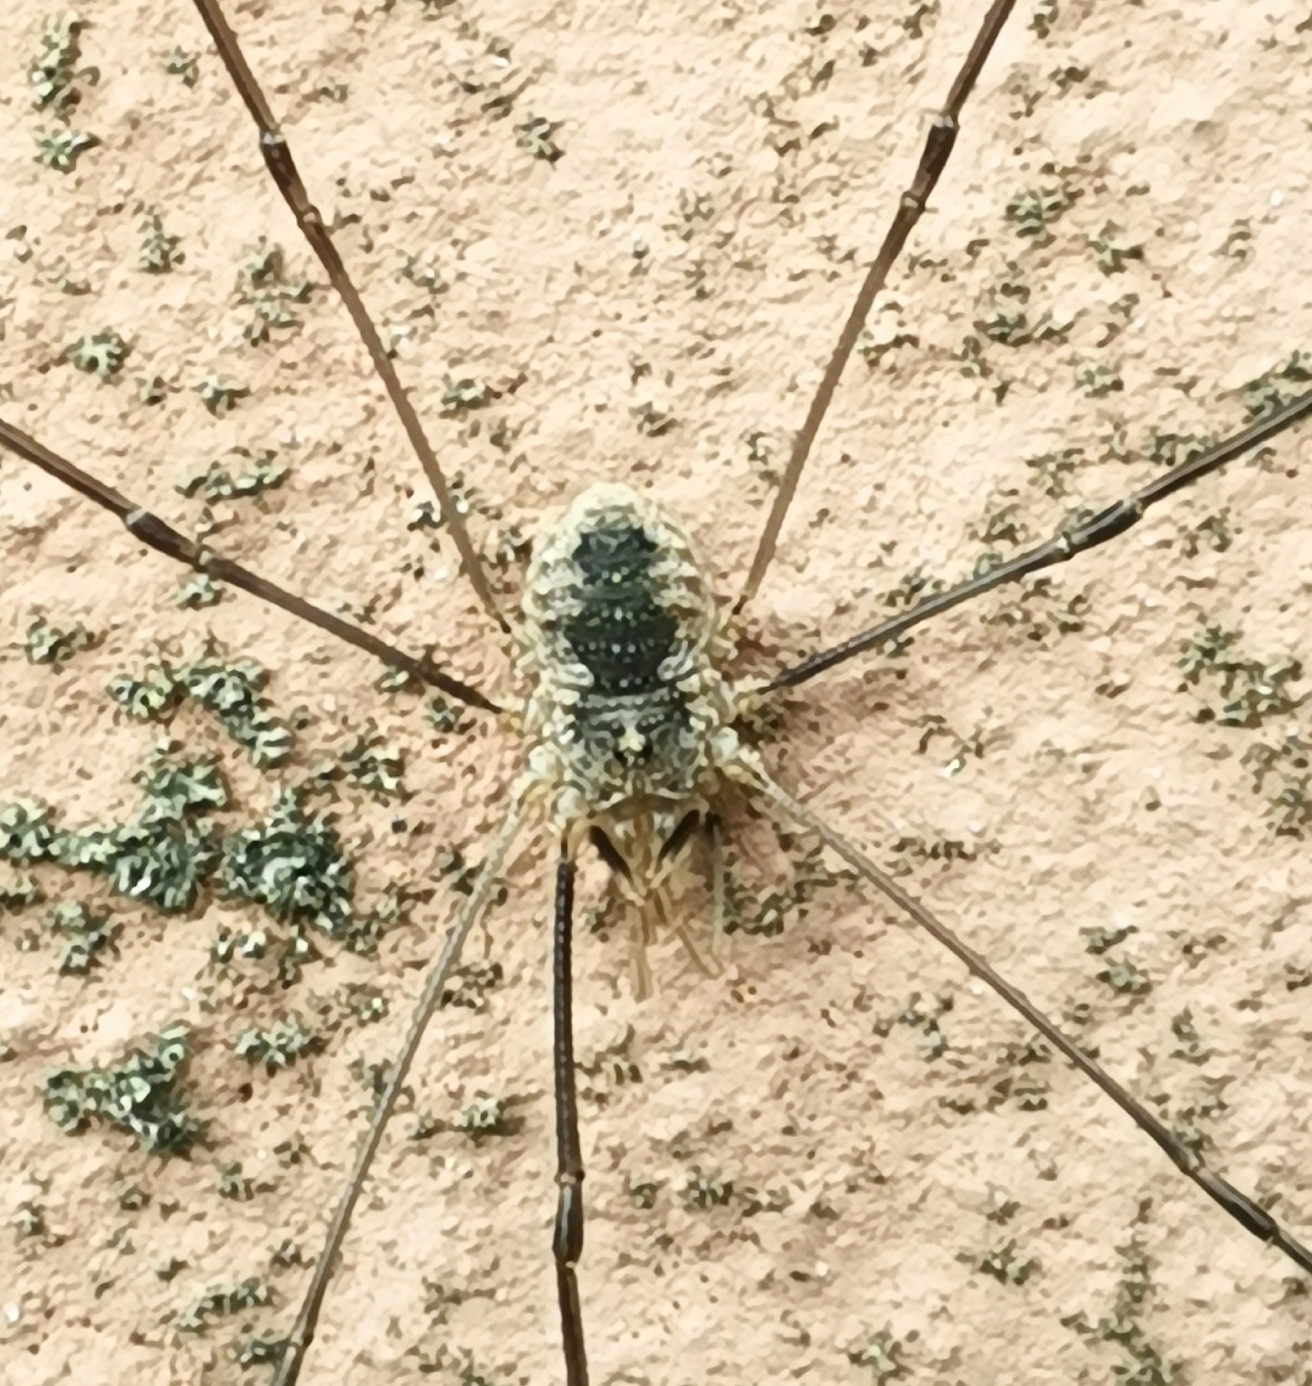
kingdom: Animalia
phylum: Arthropoda
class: Arachnida
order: Opiliones
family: Phalangiidae
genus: Phalangium
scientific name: Phalangium opilio
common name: Daddy longleg
